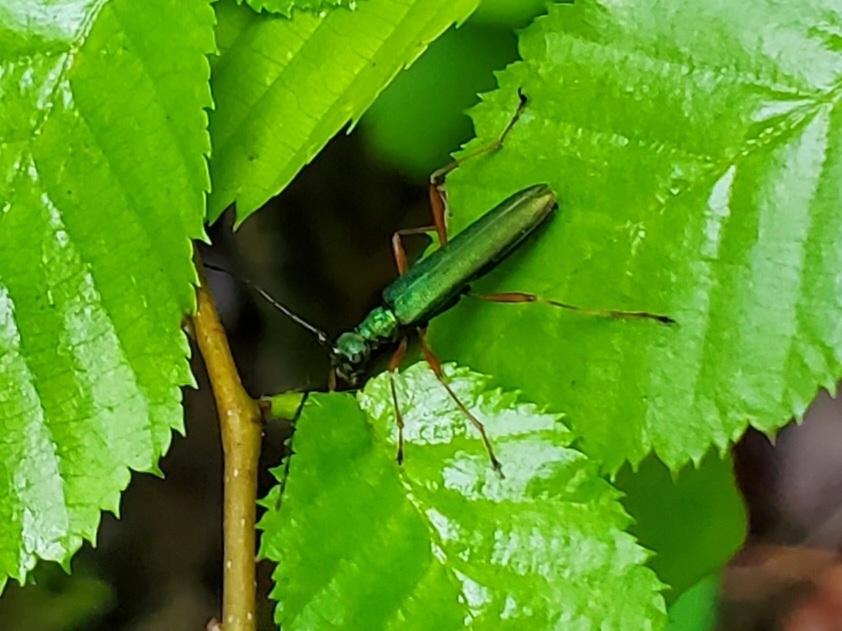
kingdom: Animalia
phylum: Arthropoda
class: Insecta
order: Coleoptera
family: Cerambycidae
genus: Encyclops
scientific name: Encyclops caerulea
